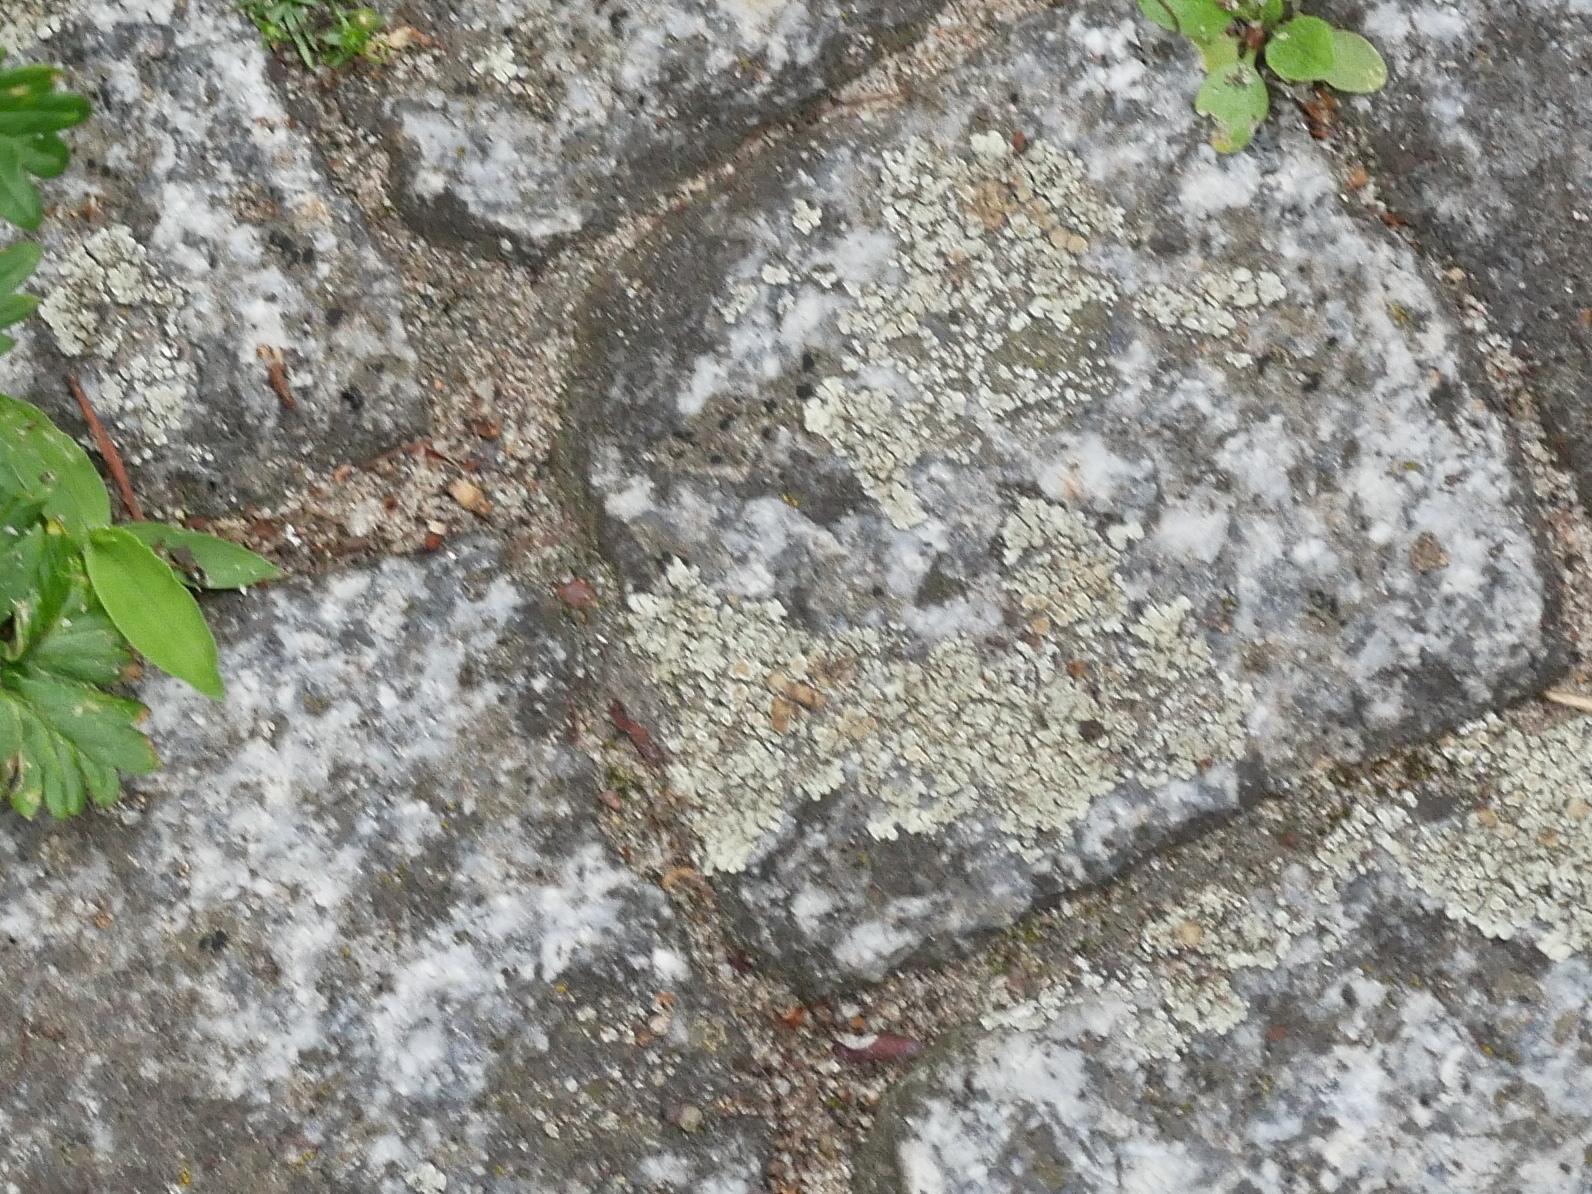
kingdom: Fungi
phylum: Ascomycota
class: Lecanoromycetes
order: Lecanorales
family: Lecanoraceae
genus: Protoparmeliopsis
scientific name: Protoparmeliopsis muralis
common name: Stonewall rim lichen
